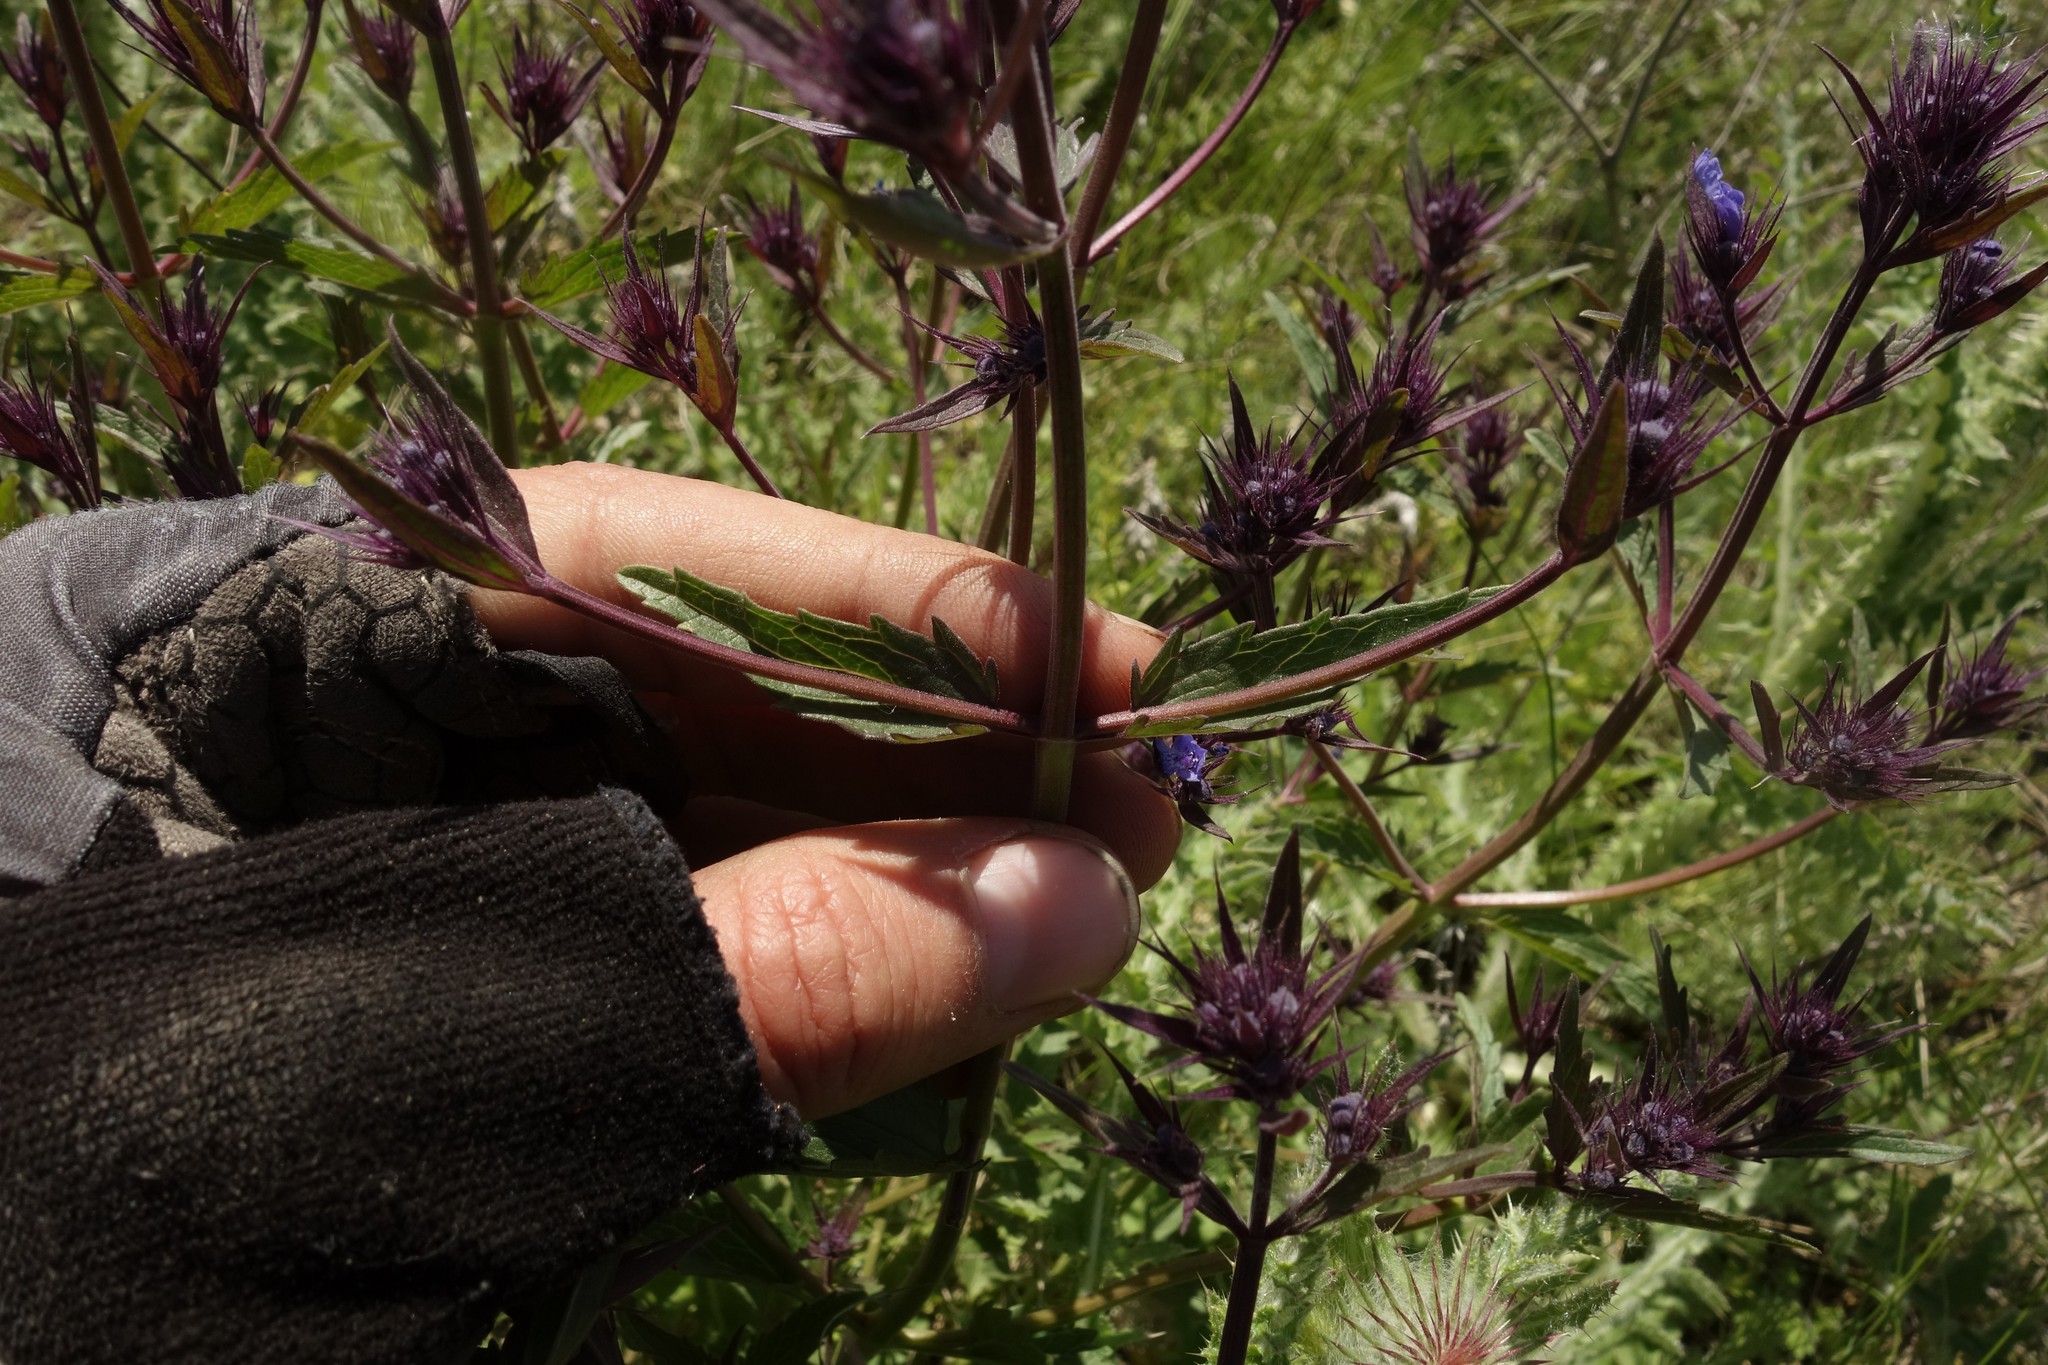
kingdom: Plantae
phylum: Tracheophyta
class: Magnoliopsida
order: Lamiales
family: Lamiaceae
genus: Nepeta
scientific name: Nepeta ucranica
